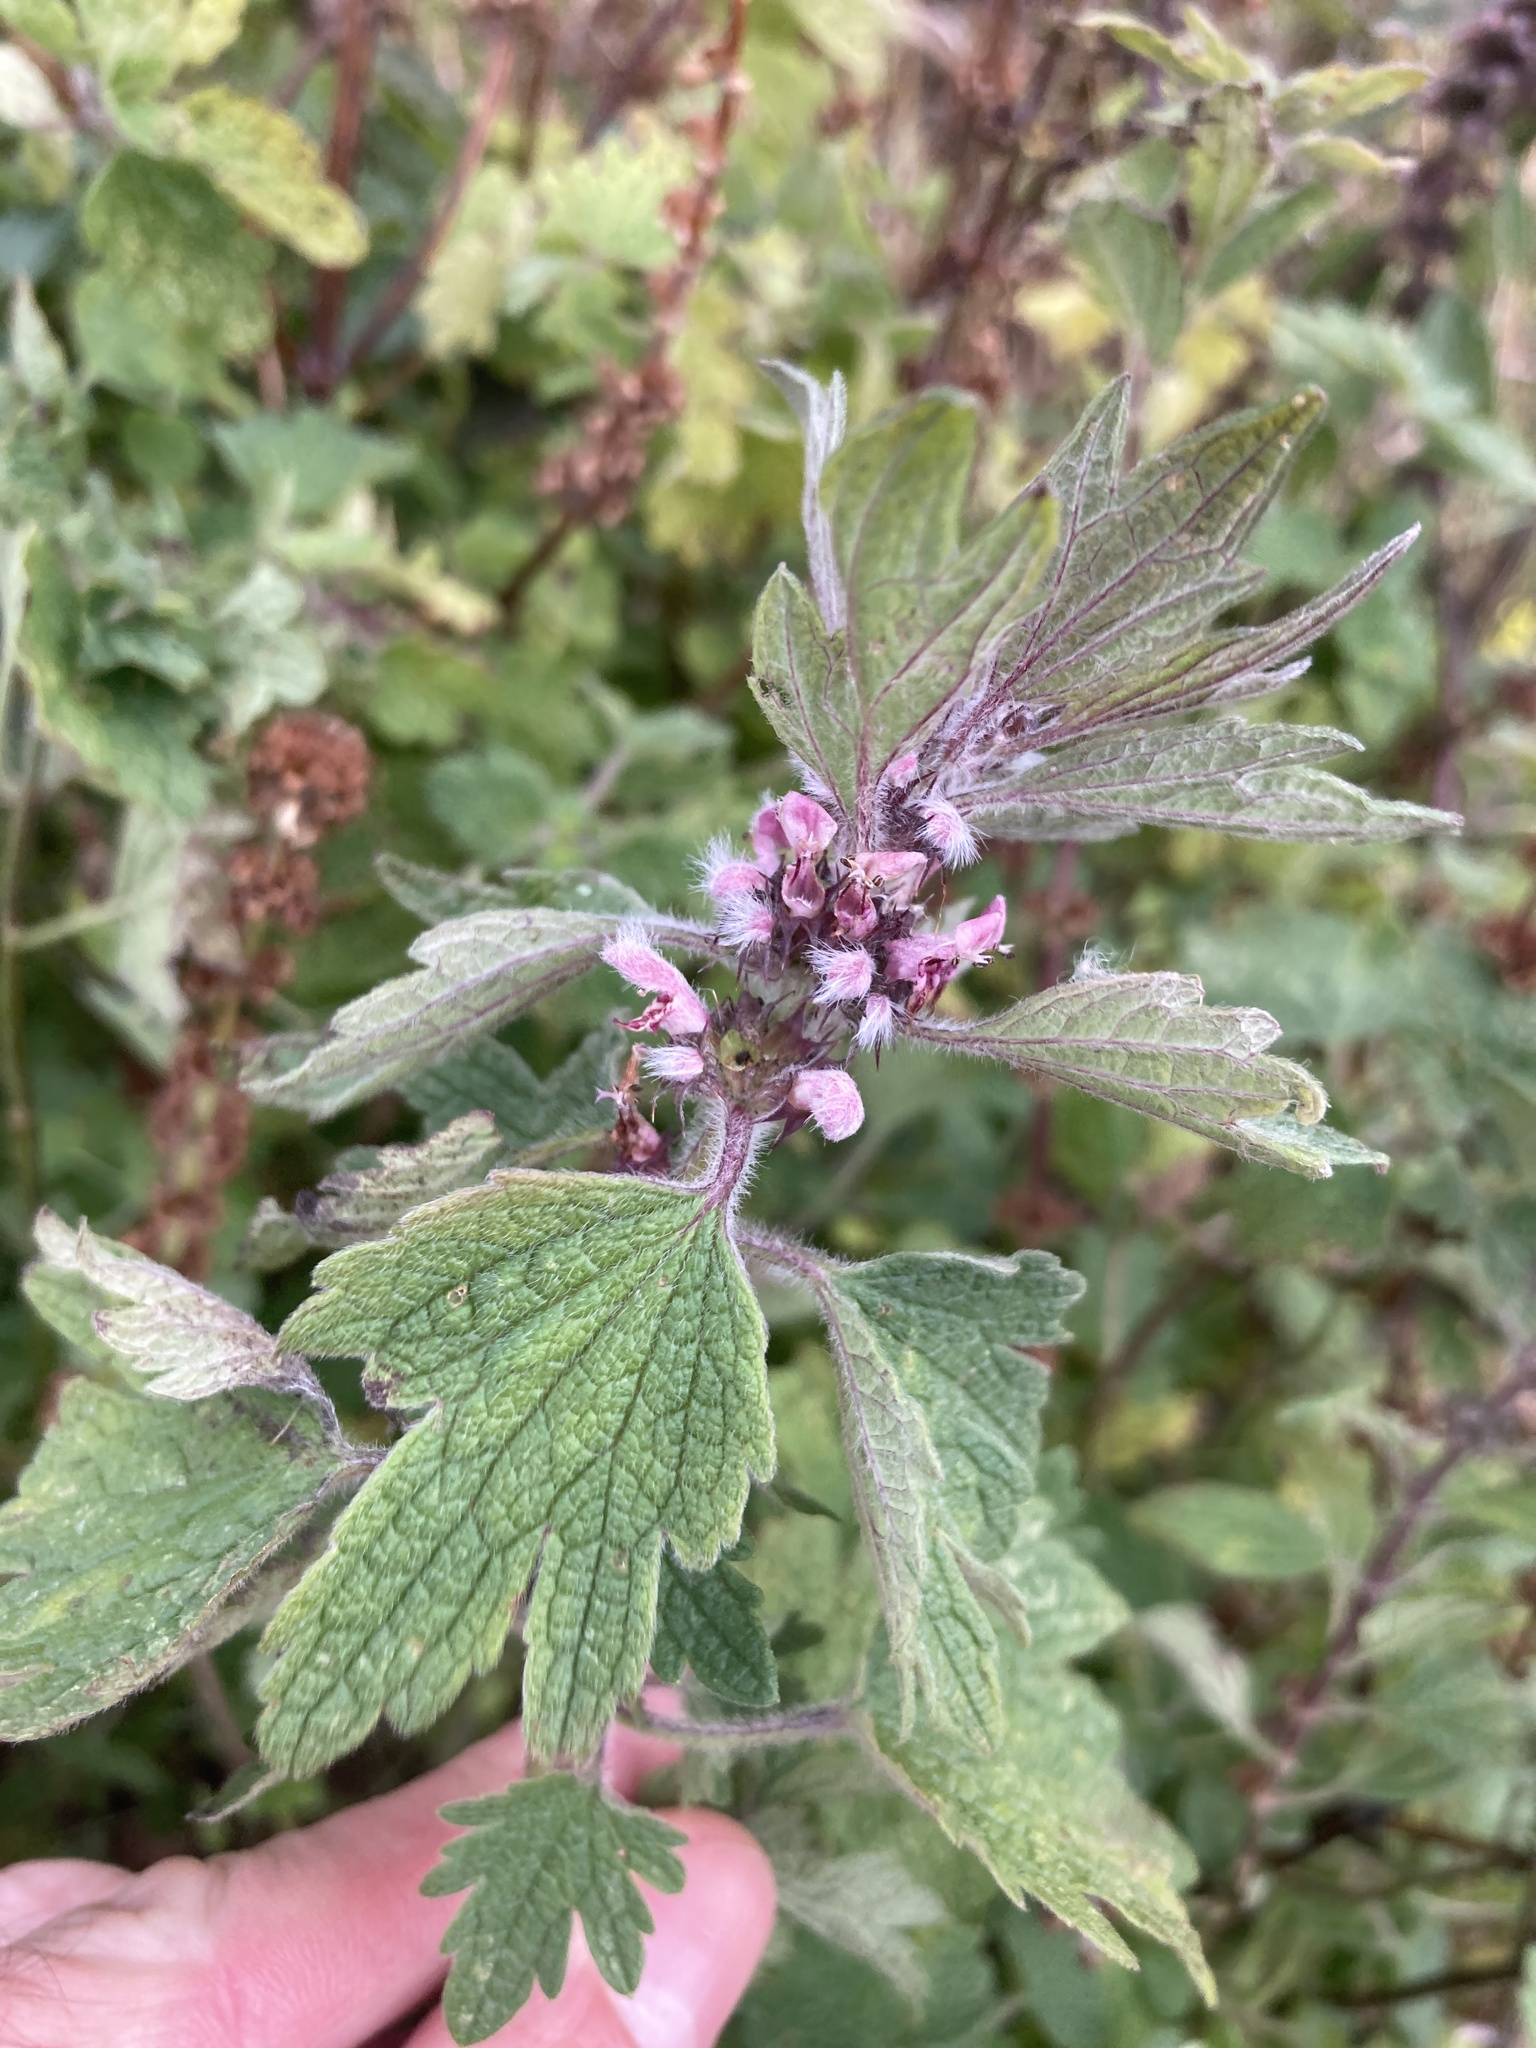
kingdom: Plantae
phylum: Tracheophyta
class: Magnoliopsida
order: Lamiales
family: Lamiaceae
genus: Leonurus
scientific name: Leonurus quinquelobatus
